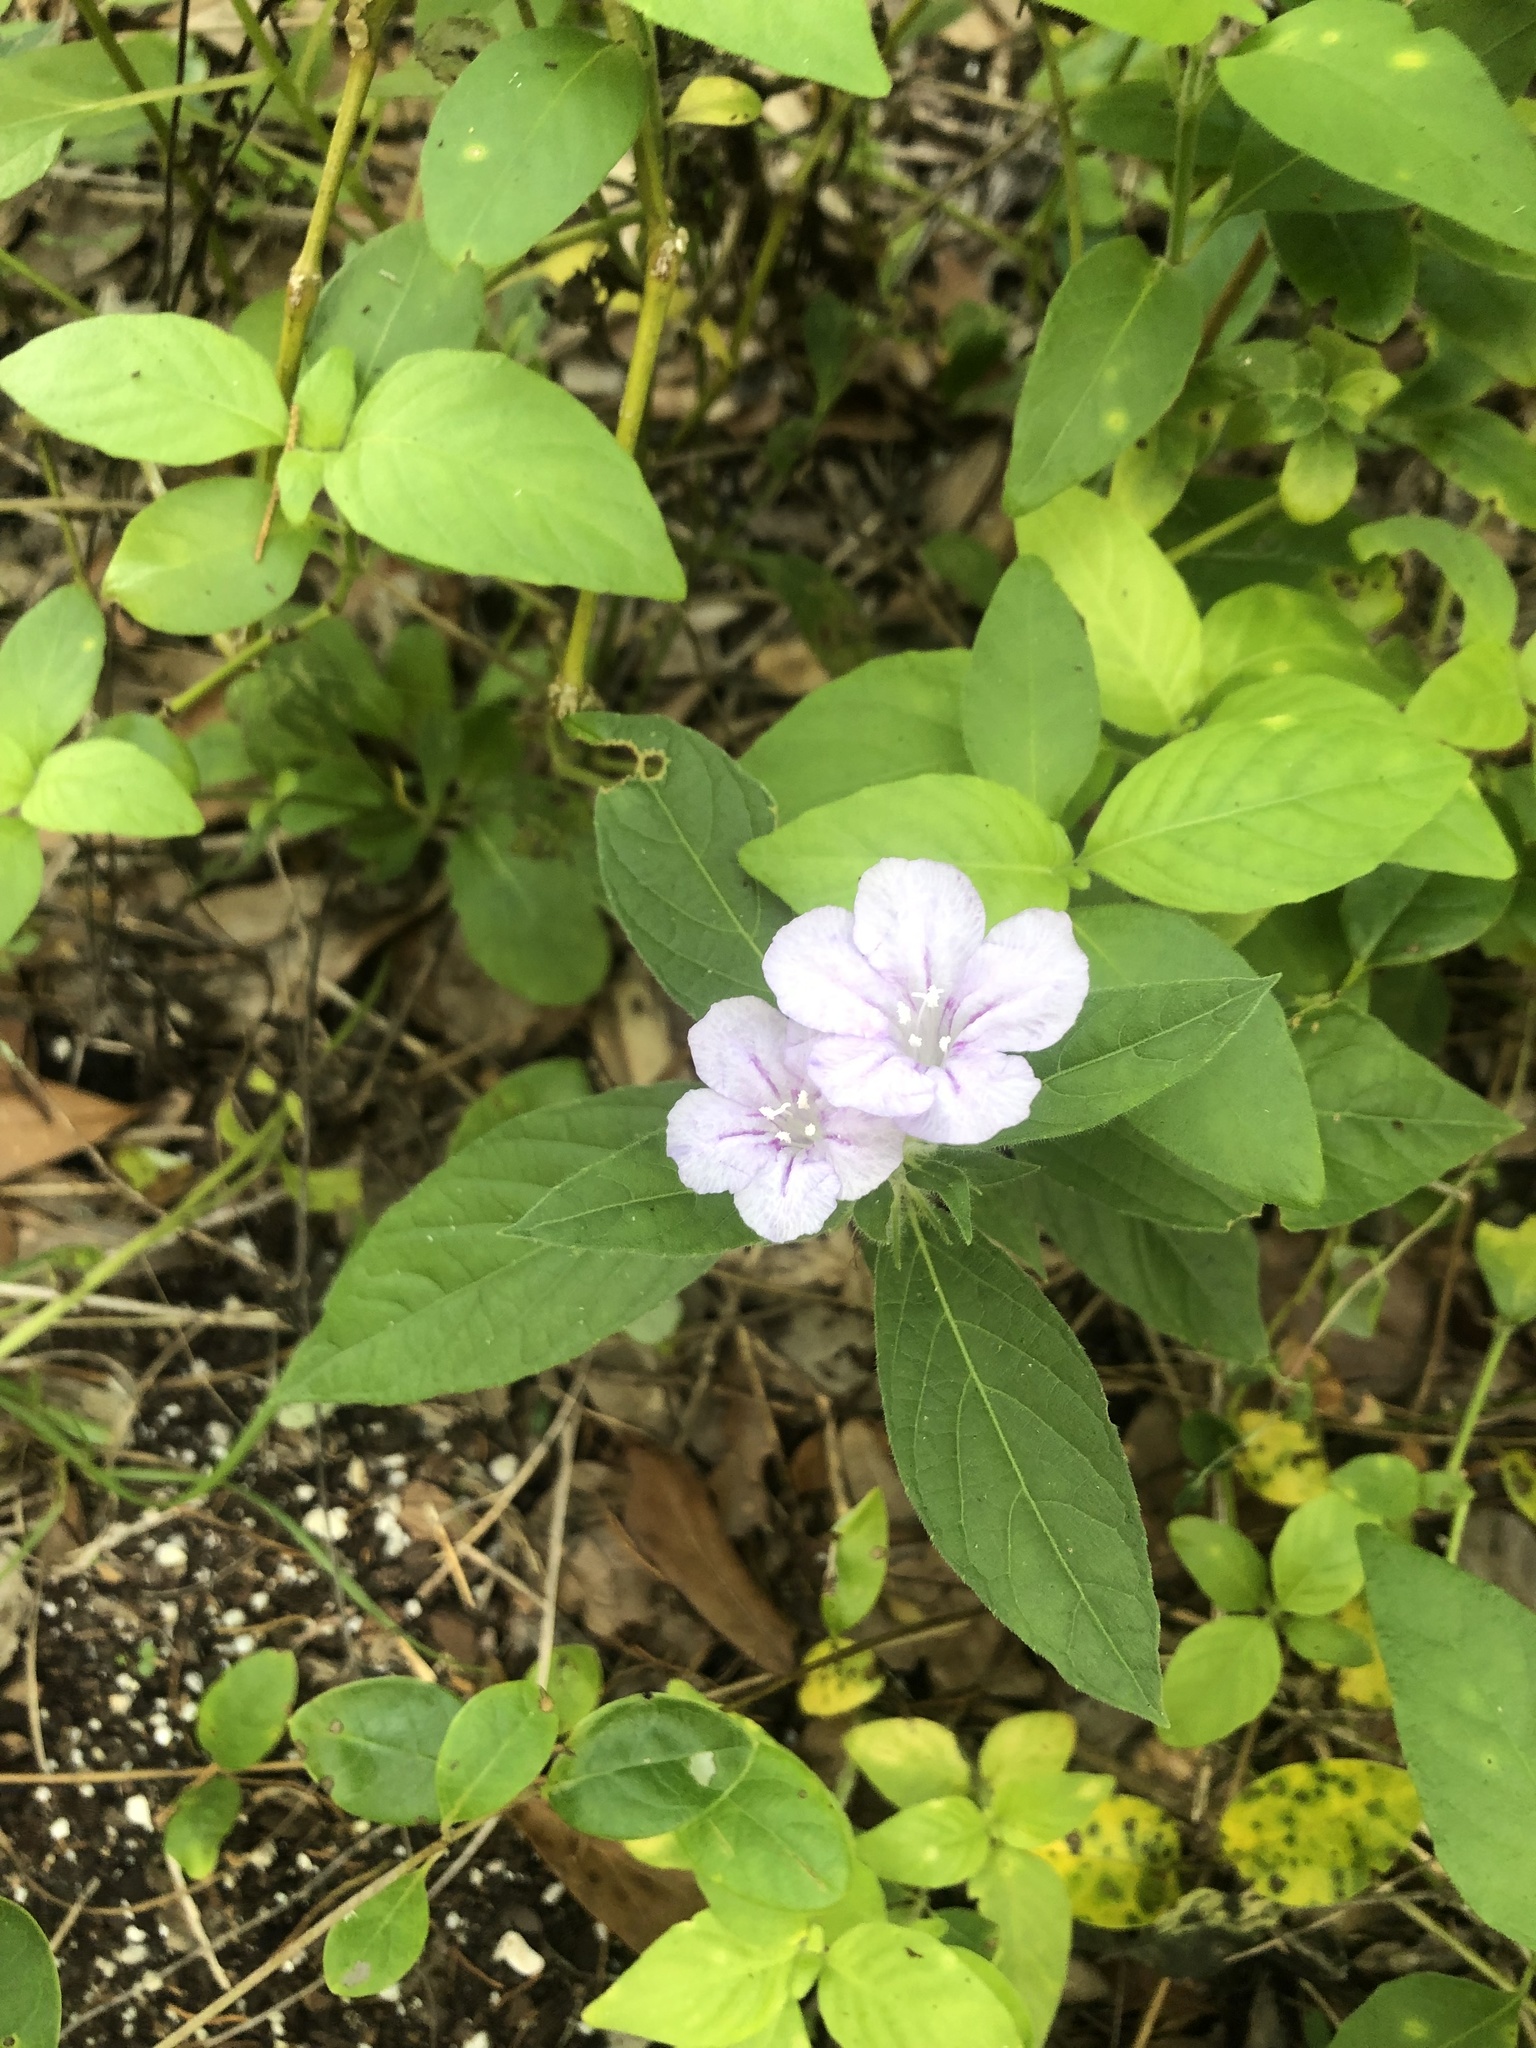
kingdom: Plantae
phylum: Tracheophyta
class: Magnoliopsida
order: Lamiales
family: Acanthaceae
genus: Ruellia
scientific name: Ruellia caroliniensis
